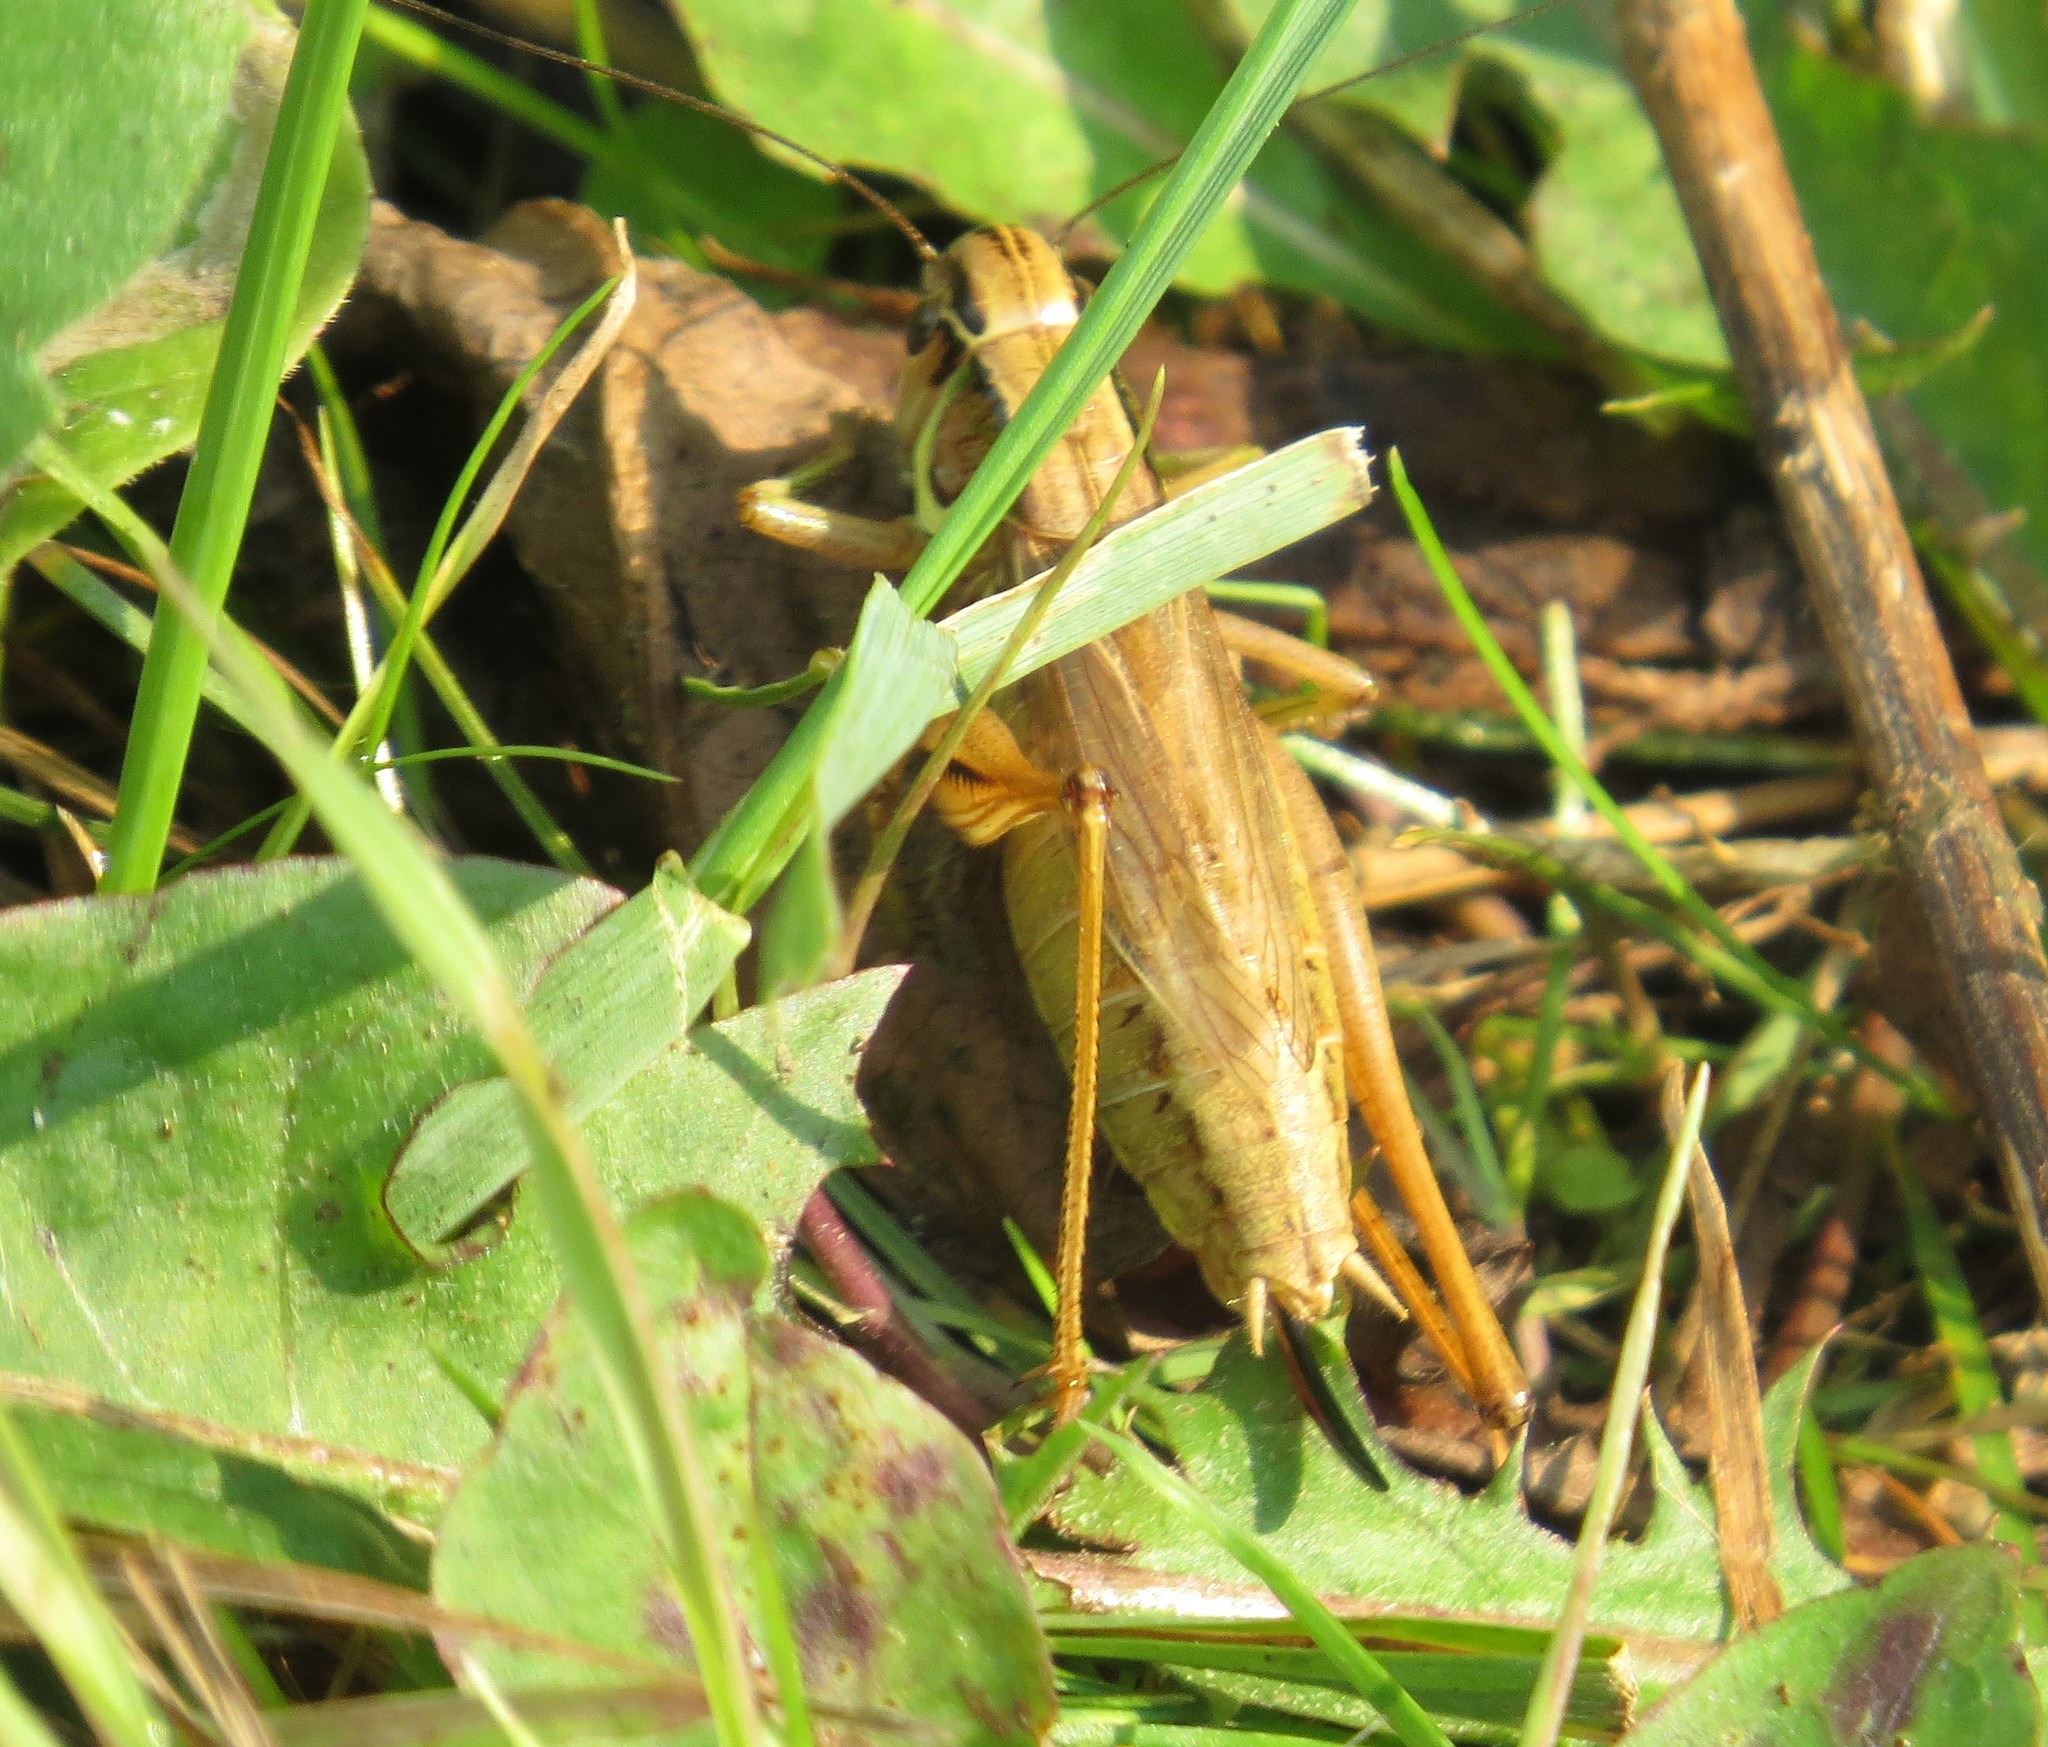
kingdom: Animalia
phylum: Arthropoda
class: Insecta
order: Orthoptera
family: Tettigoniidae
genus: Roeseliana
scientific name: Roeseliana roeselii
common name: Roesel's bush cricket
